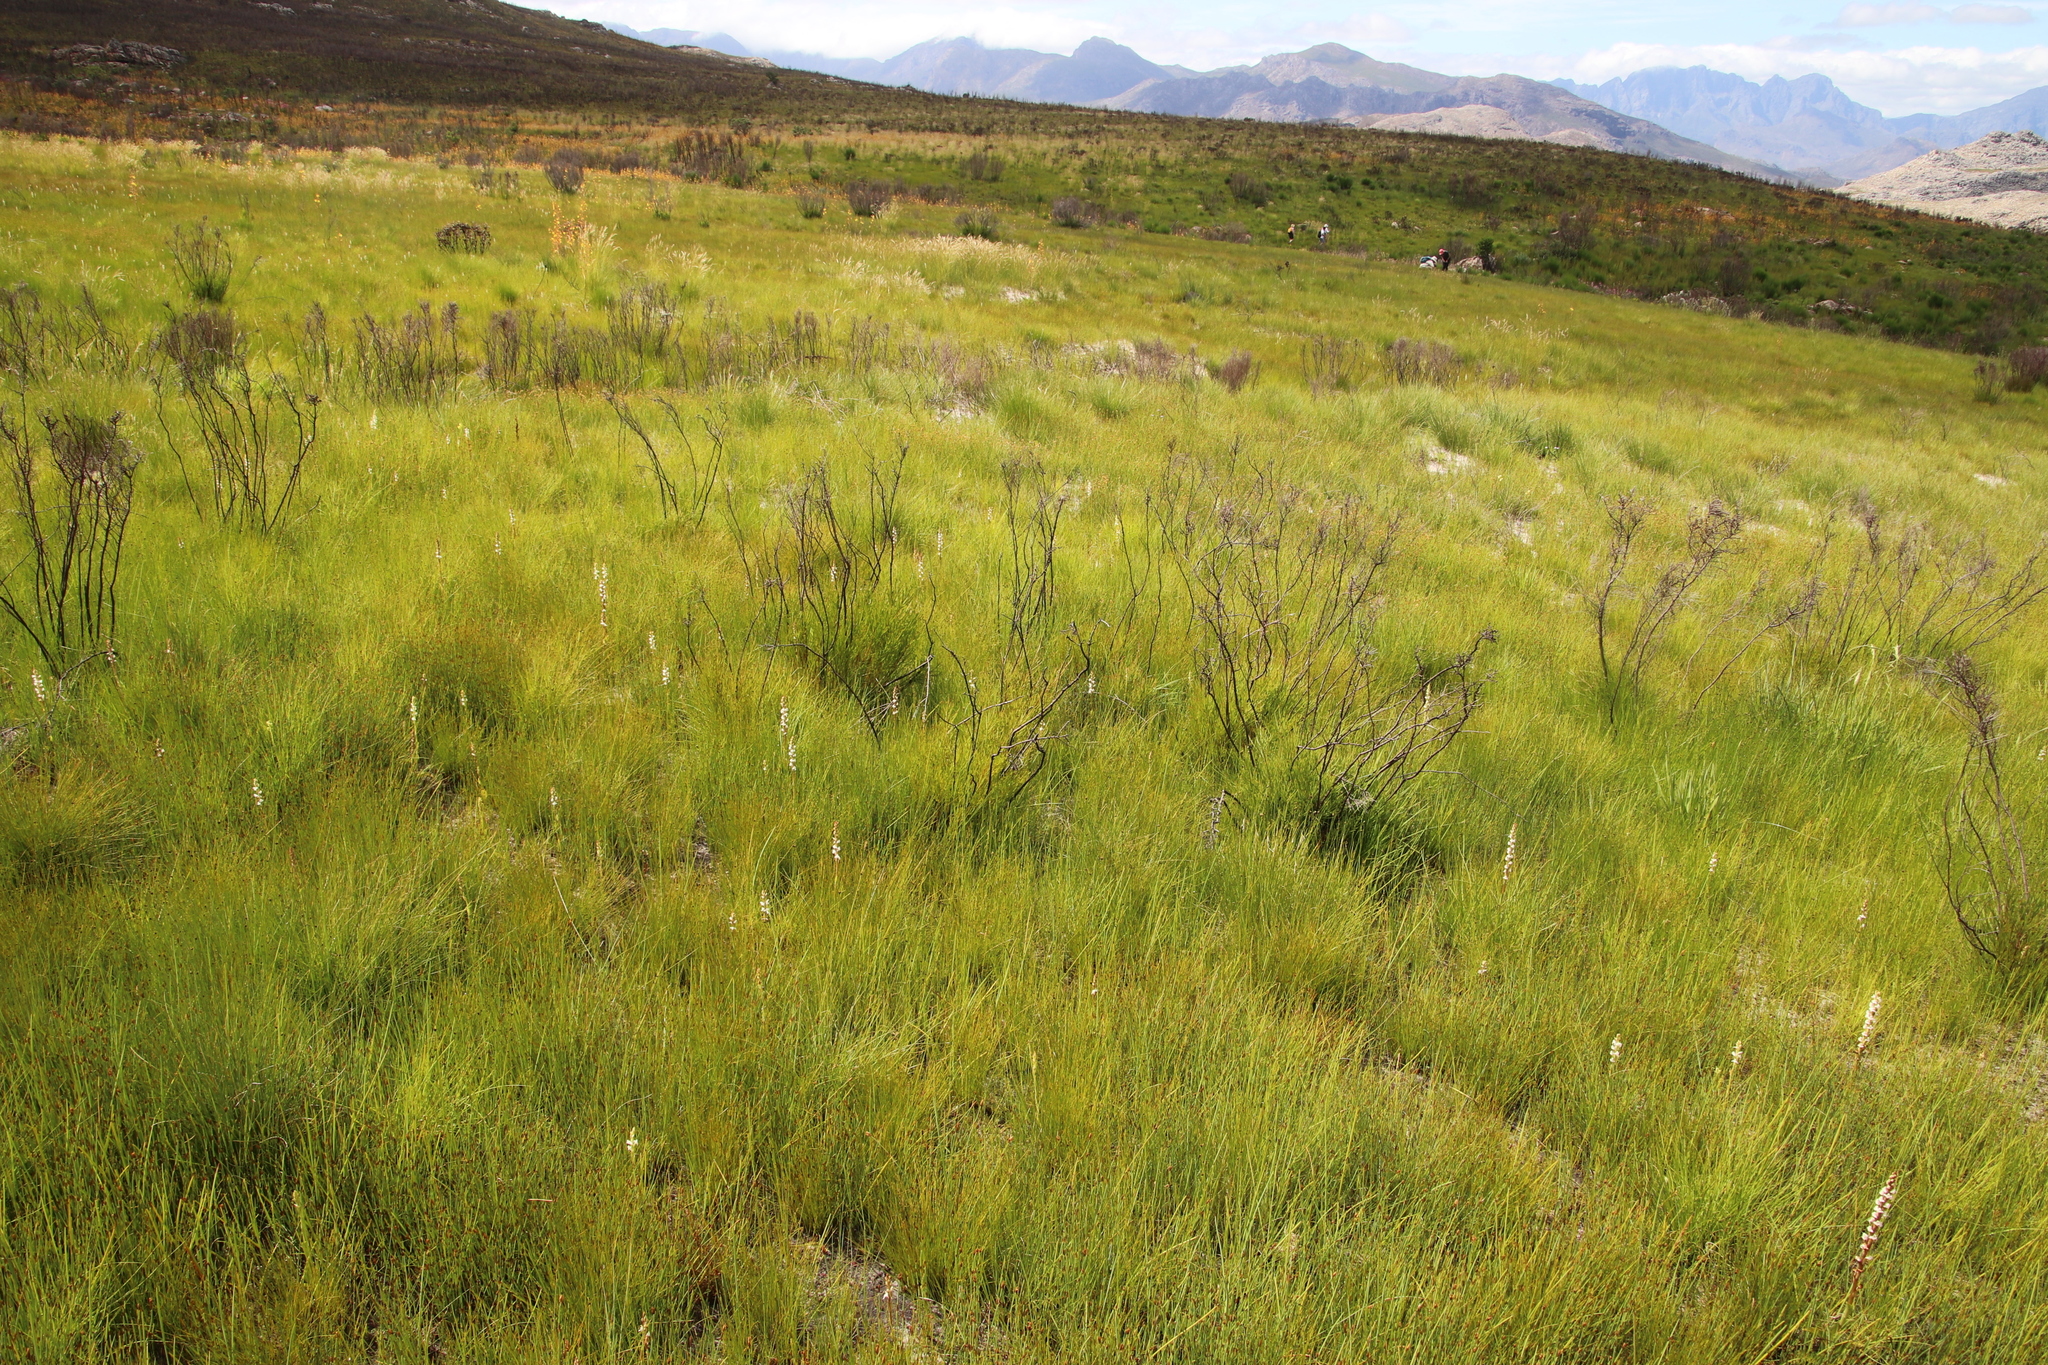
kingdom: Plantae
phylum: Tracheophyta
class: Liliopsida
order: Asparagales
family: Orchidaceae
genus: Satyrium
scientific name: Satyrium stenopetalum
